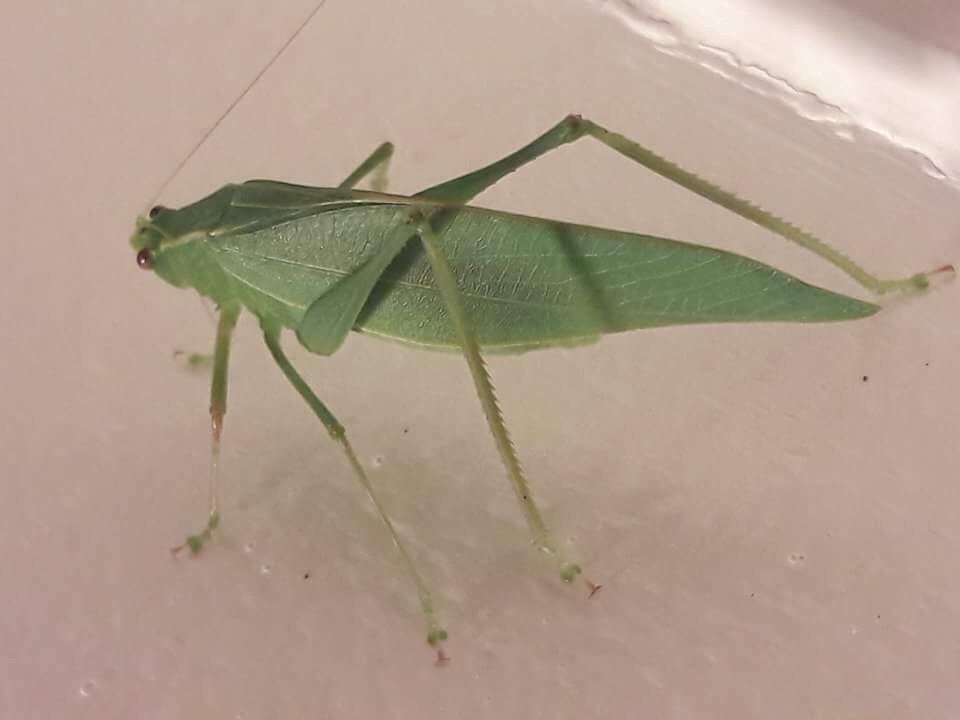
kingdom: Animalia
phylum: Arthropoda
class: Insecta
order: Orthoptera
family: Tettigoniidae
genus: Caedicia
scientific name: Caedicia simplex
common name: Common garden katydid
